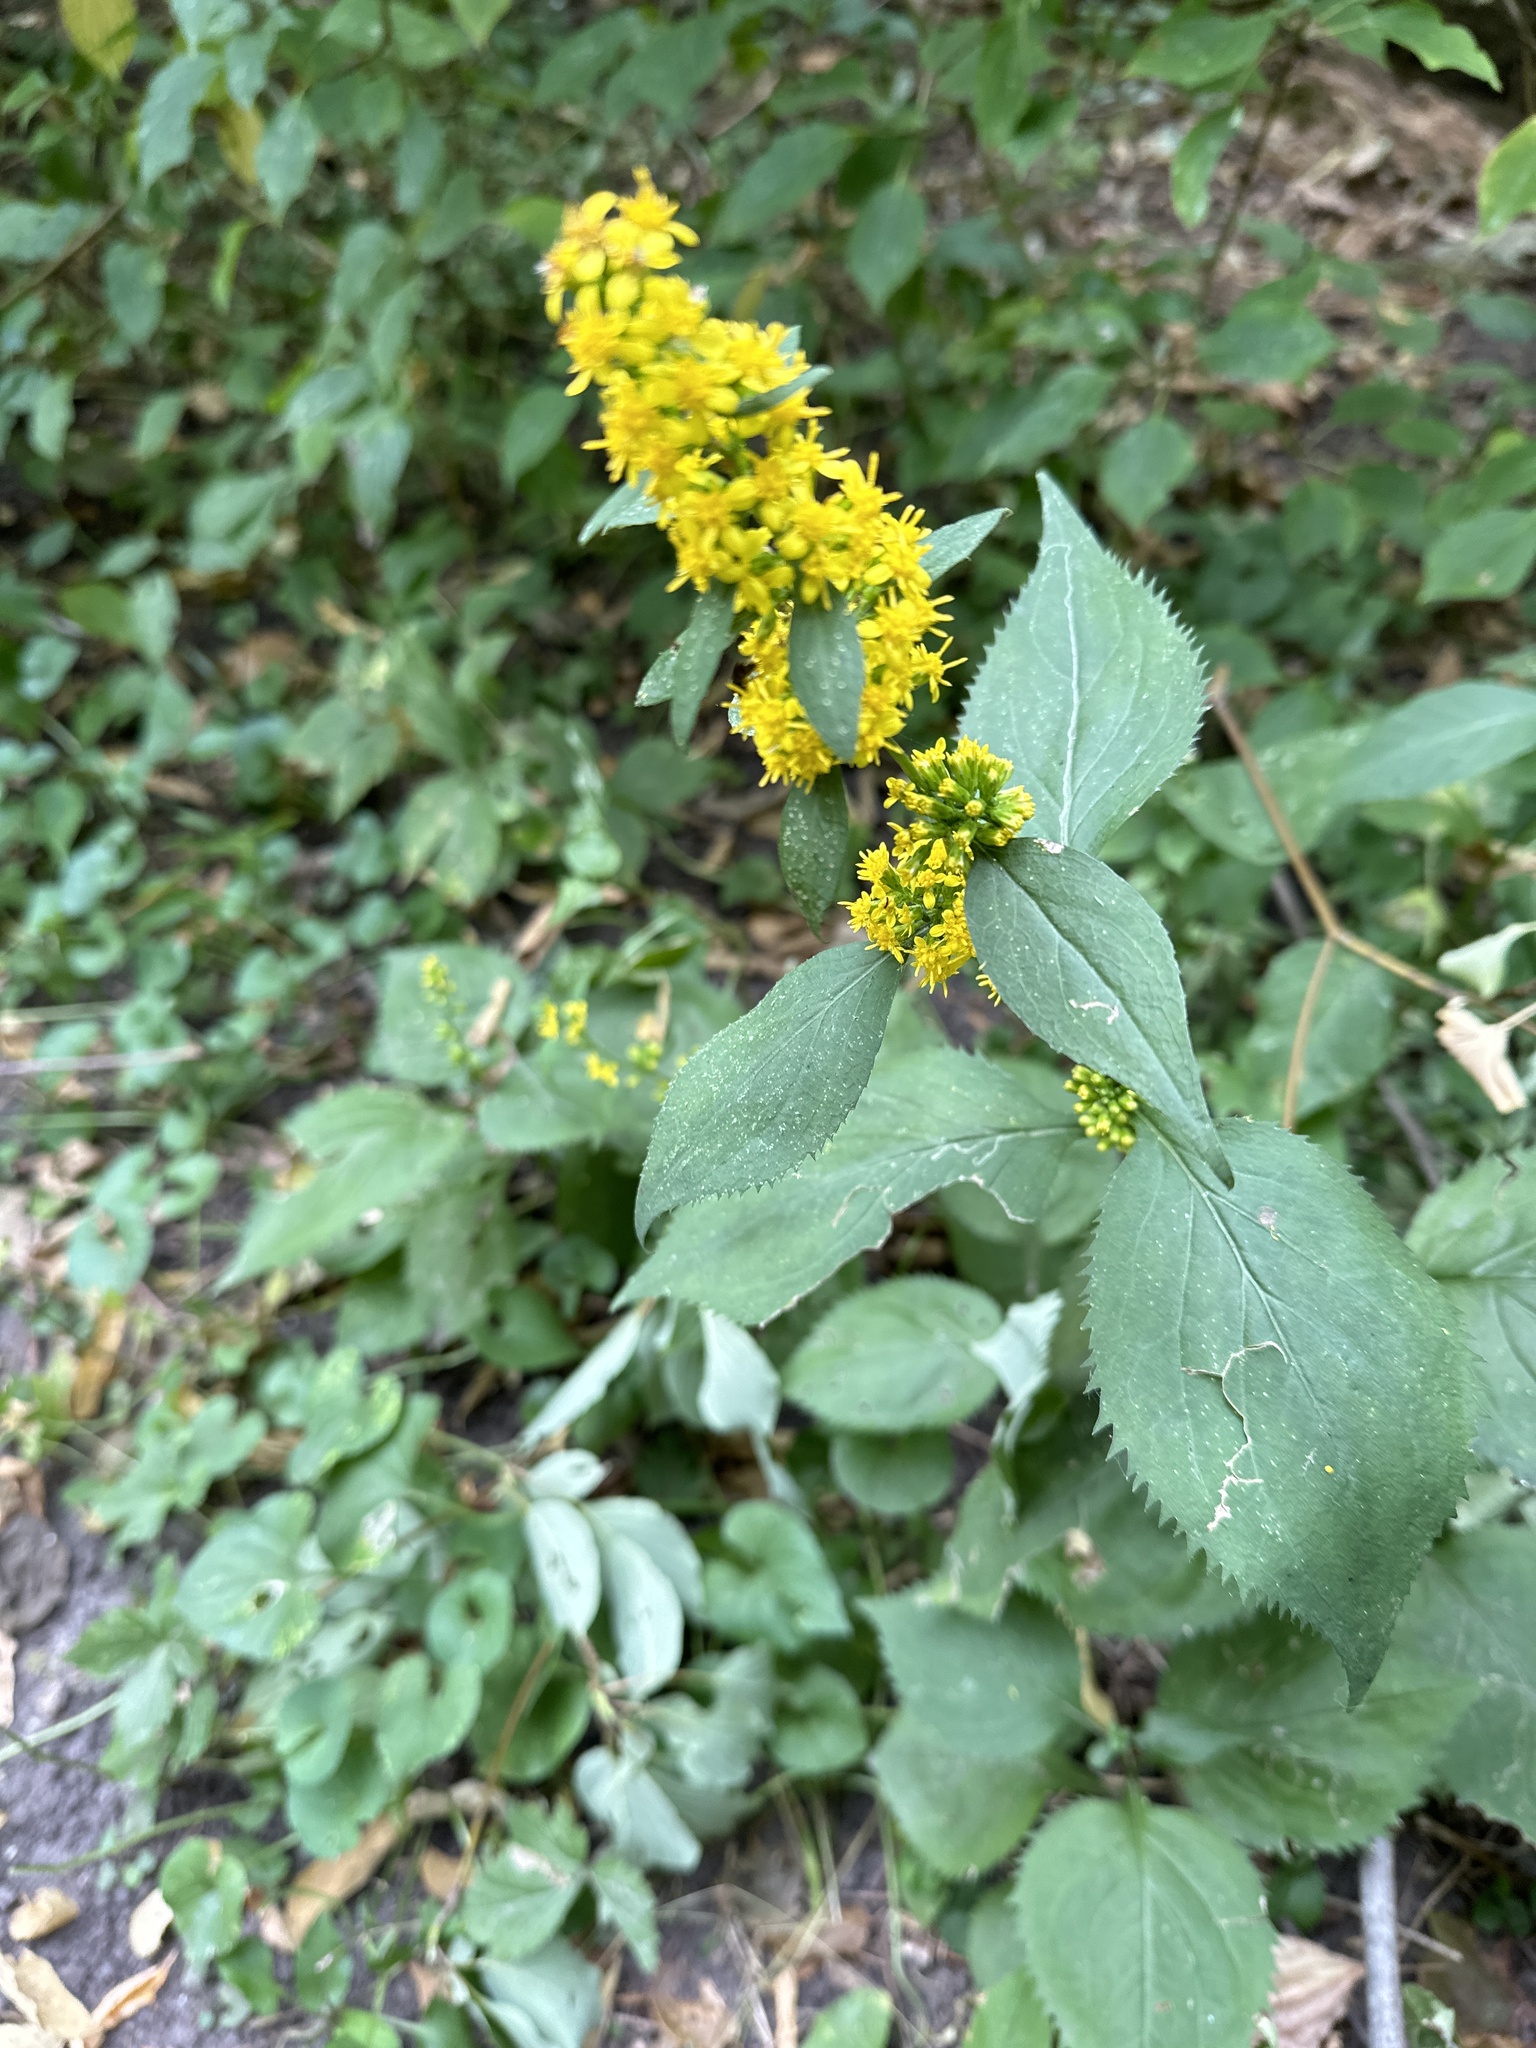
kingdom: Plantae
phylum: Tracheophyta
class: Magnoliopsida
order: Asterales
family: Asteraceae
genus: Solidago
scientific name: Solidago flexicaulis
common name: Zig-zag goldenrod
